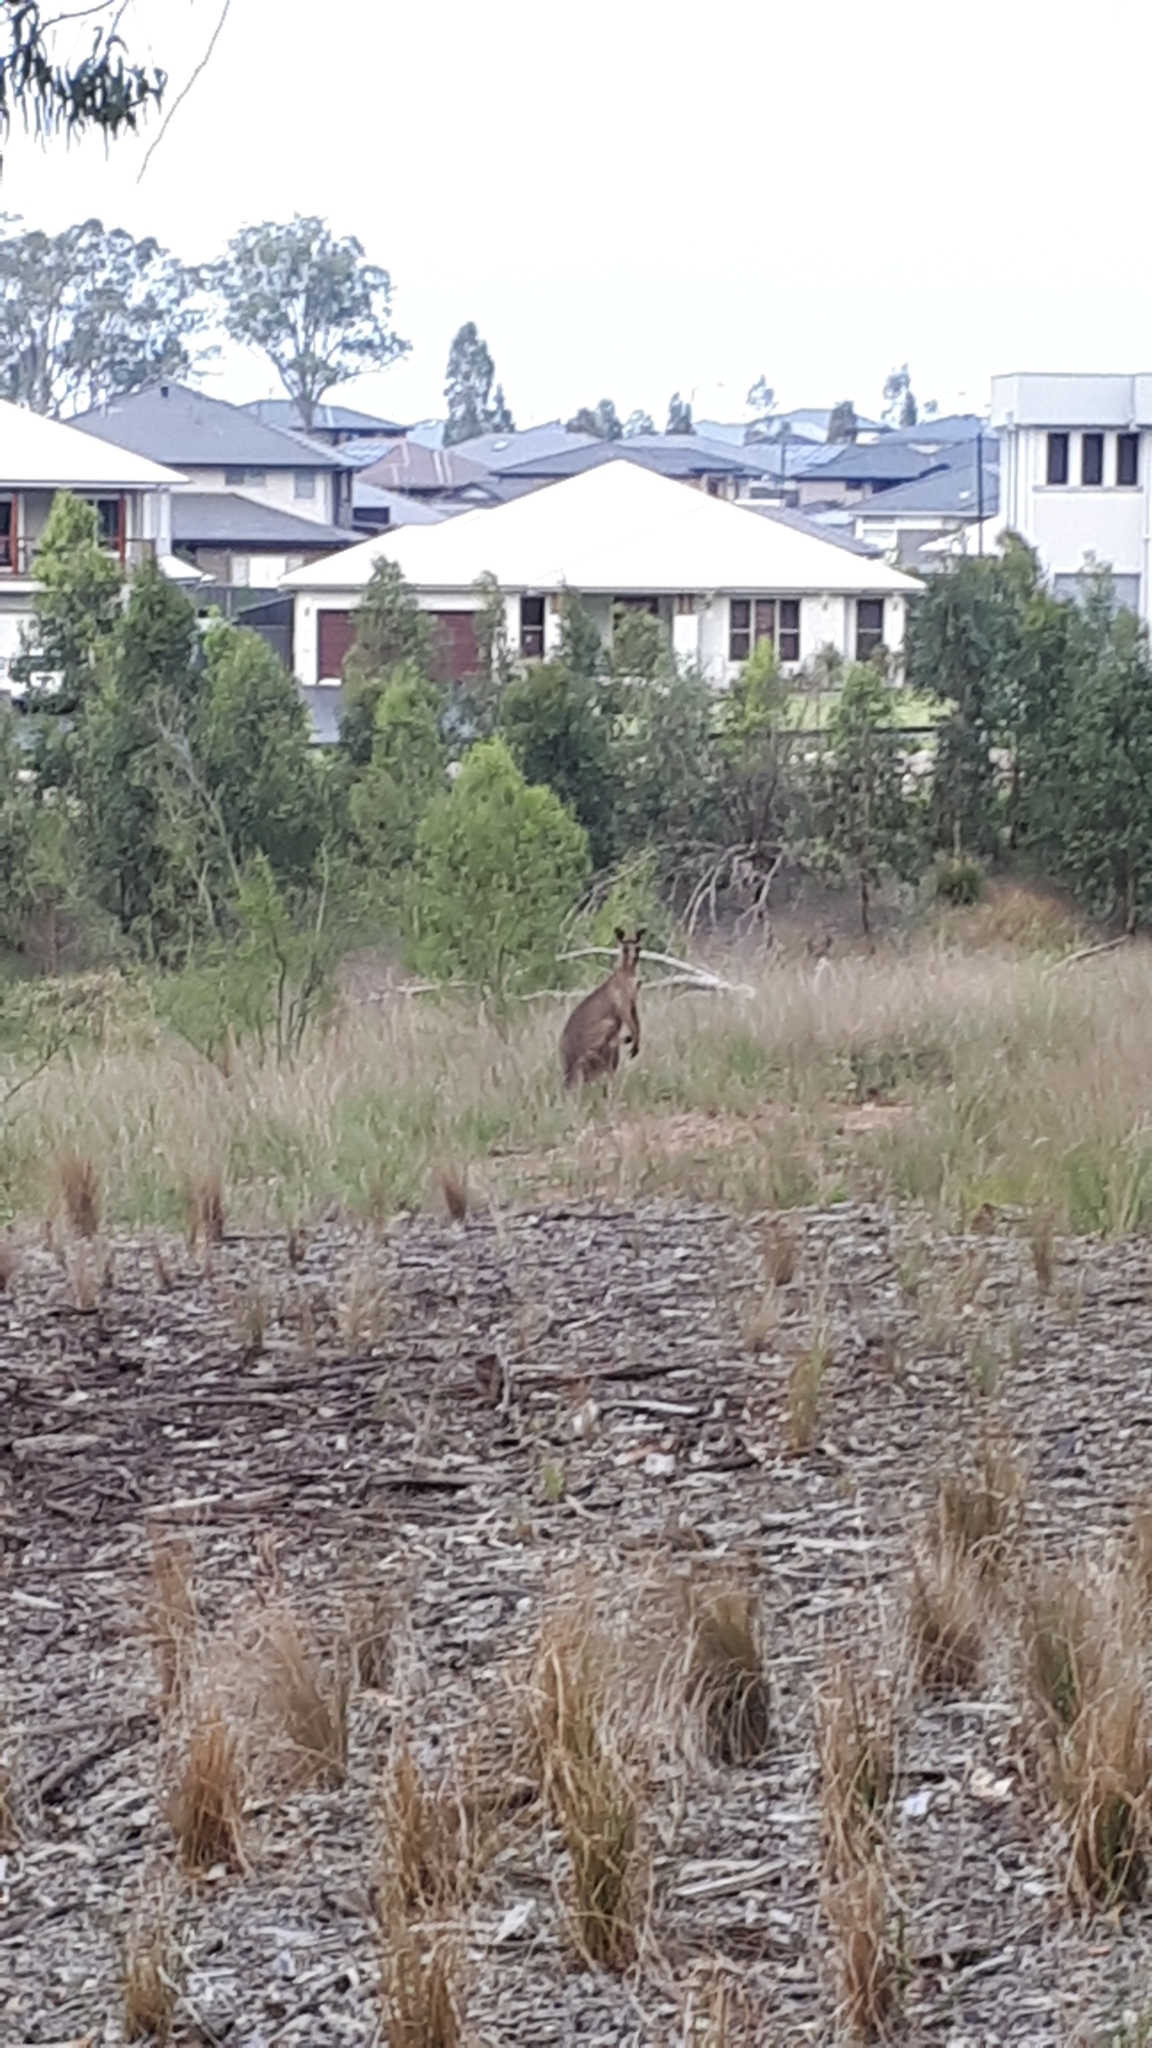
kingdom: Animalia
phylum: Chordata
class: Mammalia
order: Diprotodontia
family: Macropodidae
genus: Macropus
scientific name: Macropus giganteus
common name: Eastern grey kangaroo
